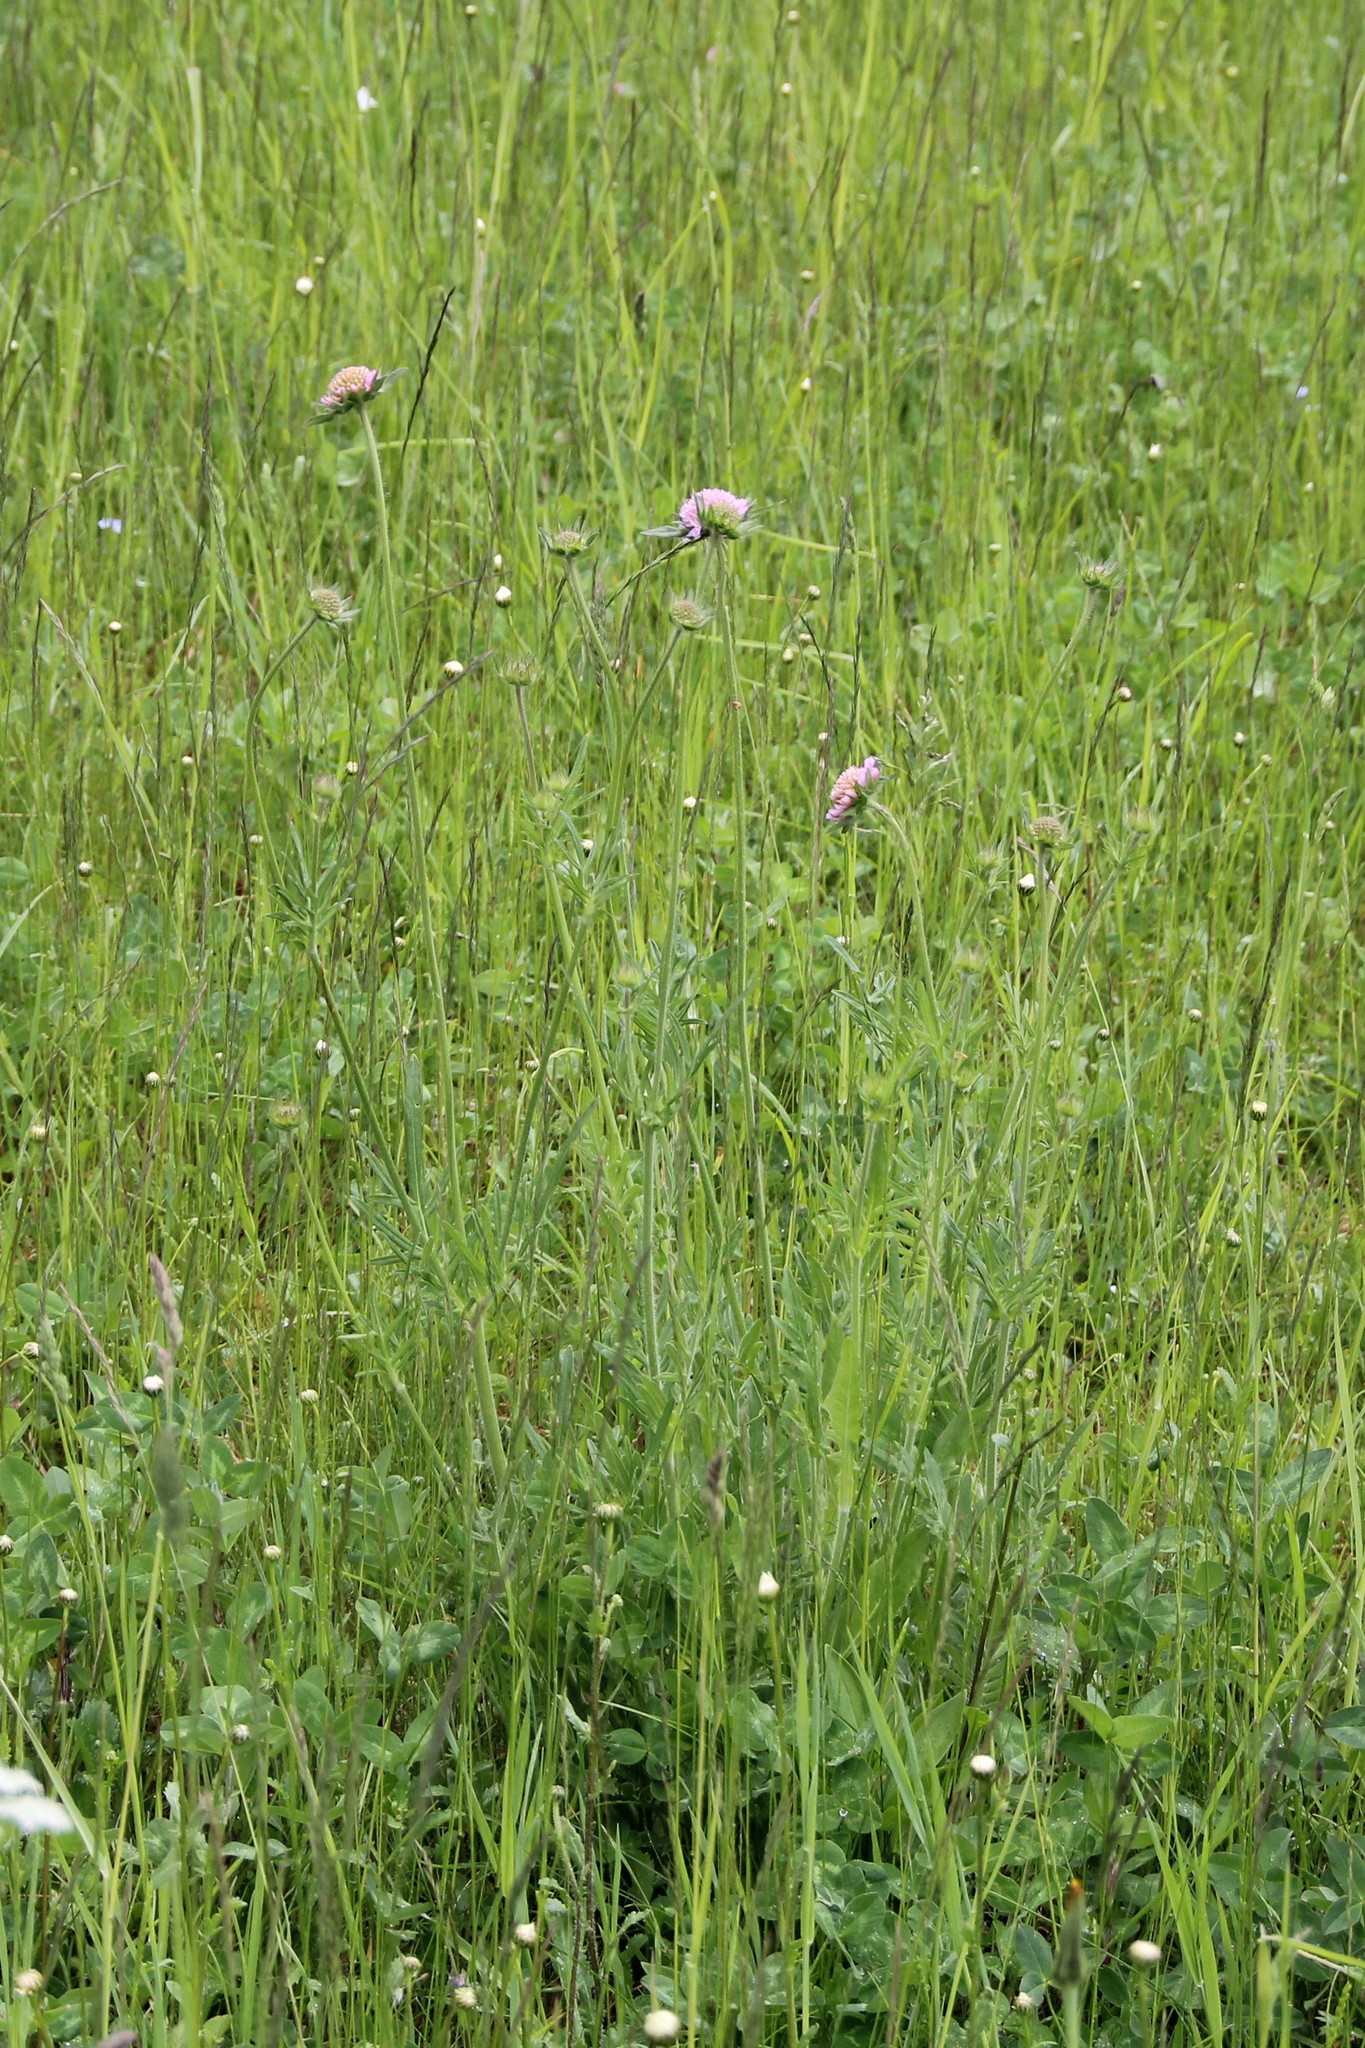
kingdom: Plantae
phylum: Tracheophyta
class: Magnoliopsida
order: Dipsacales
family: Caprifoliaceae
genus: Knautia
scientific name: Knautia arvensis
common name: Field scabiosa
